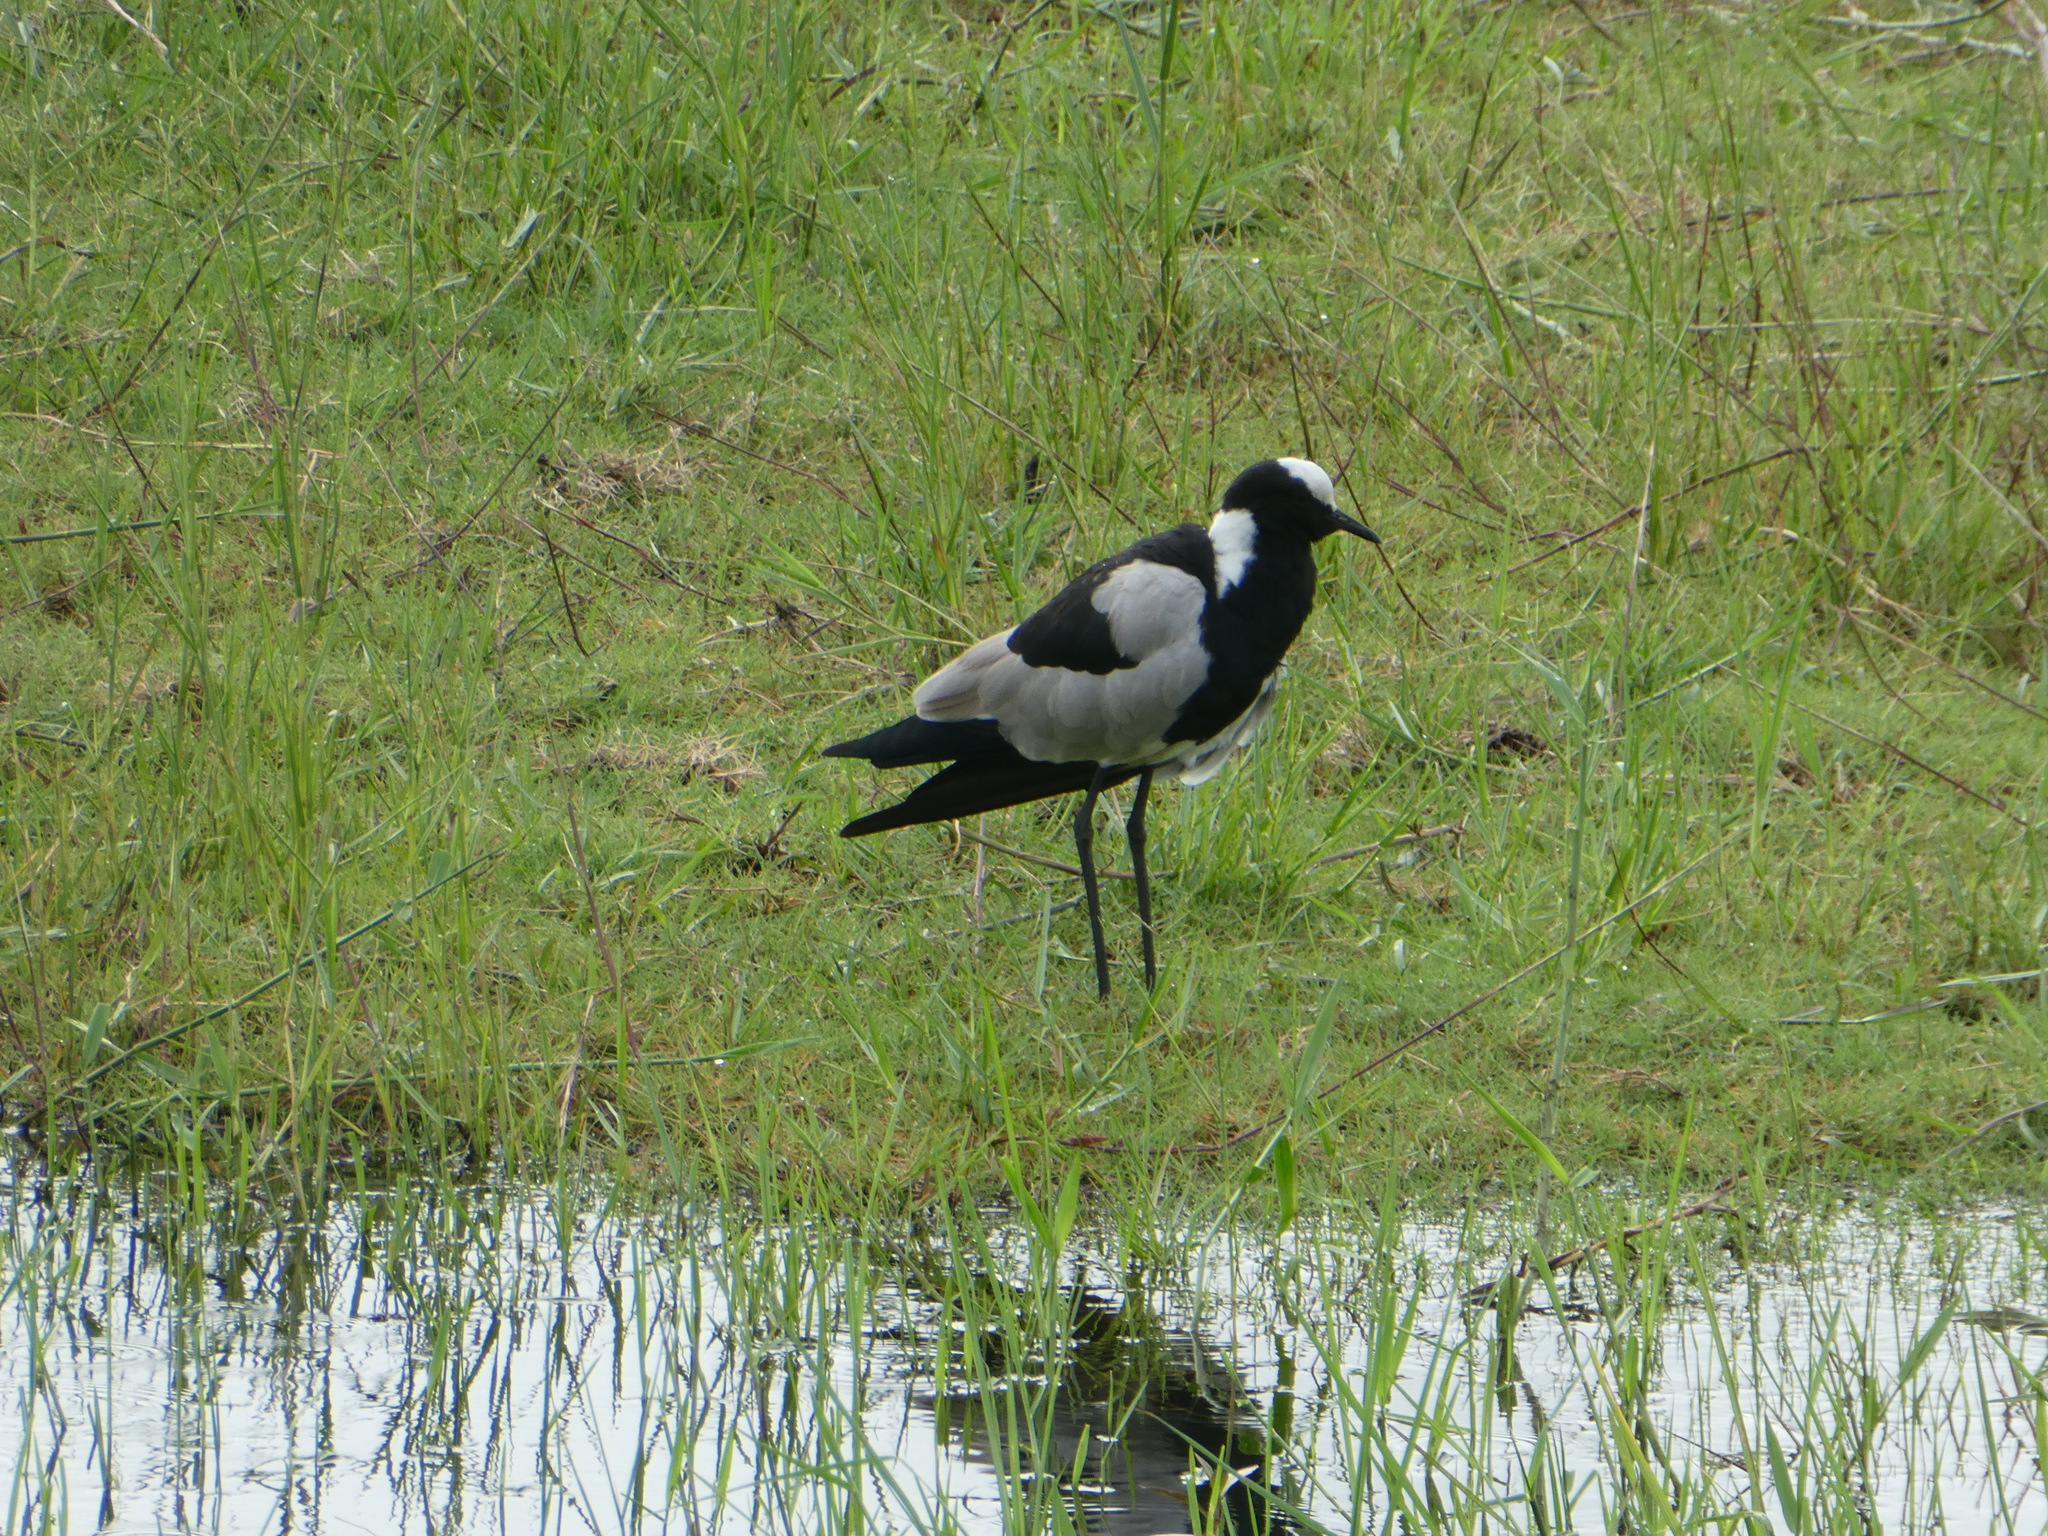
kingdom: Animalia
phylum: Chordata
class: Aves
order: Charadriiformes
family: Charadriidae
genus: Vanellus
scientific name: Vanellus armatus
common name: Blacksmith lapwing
